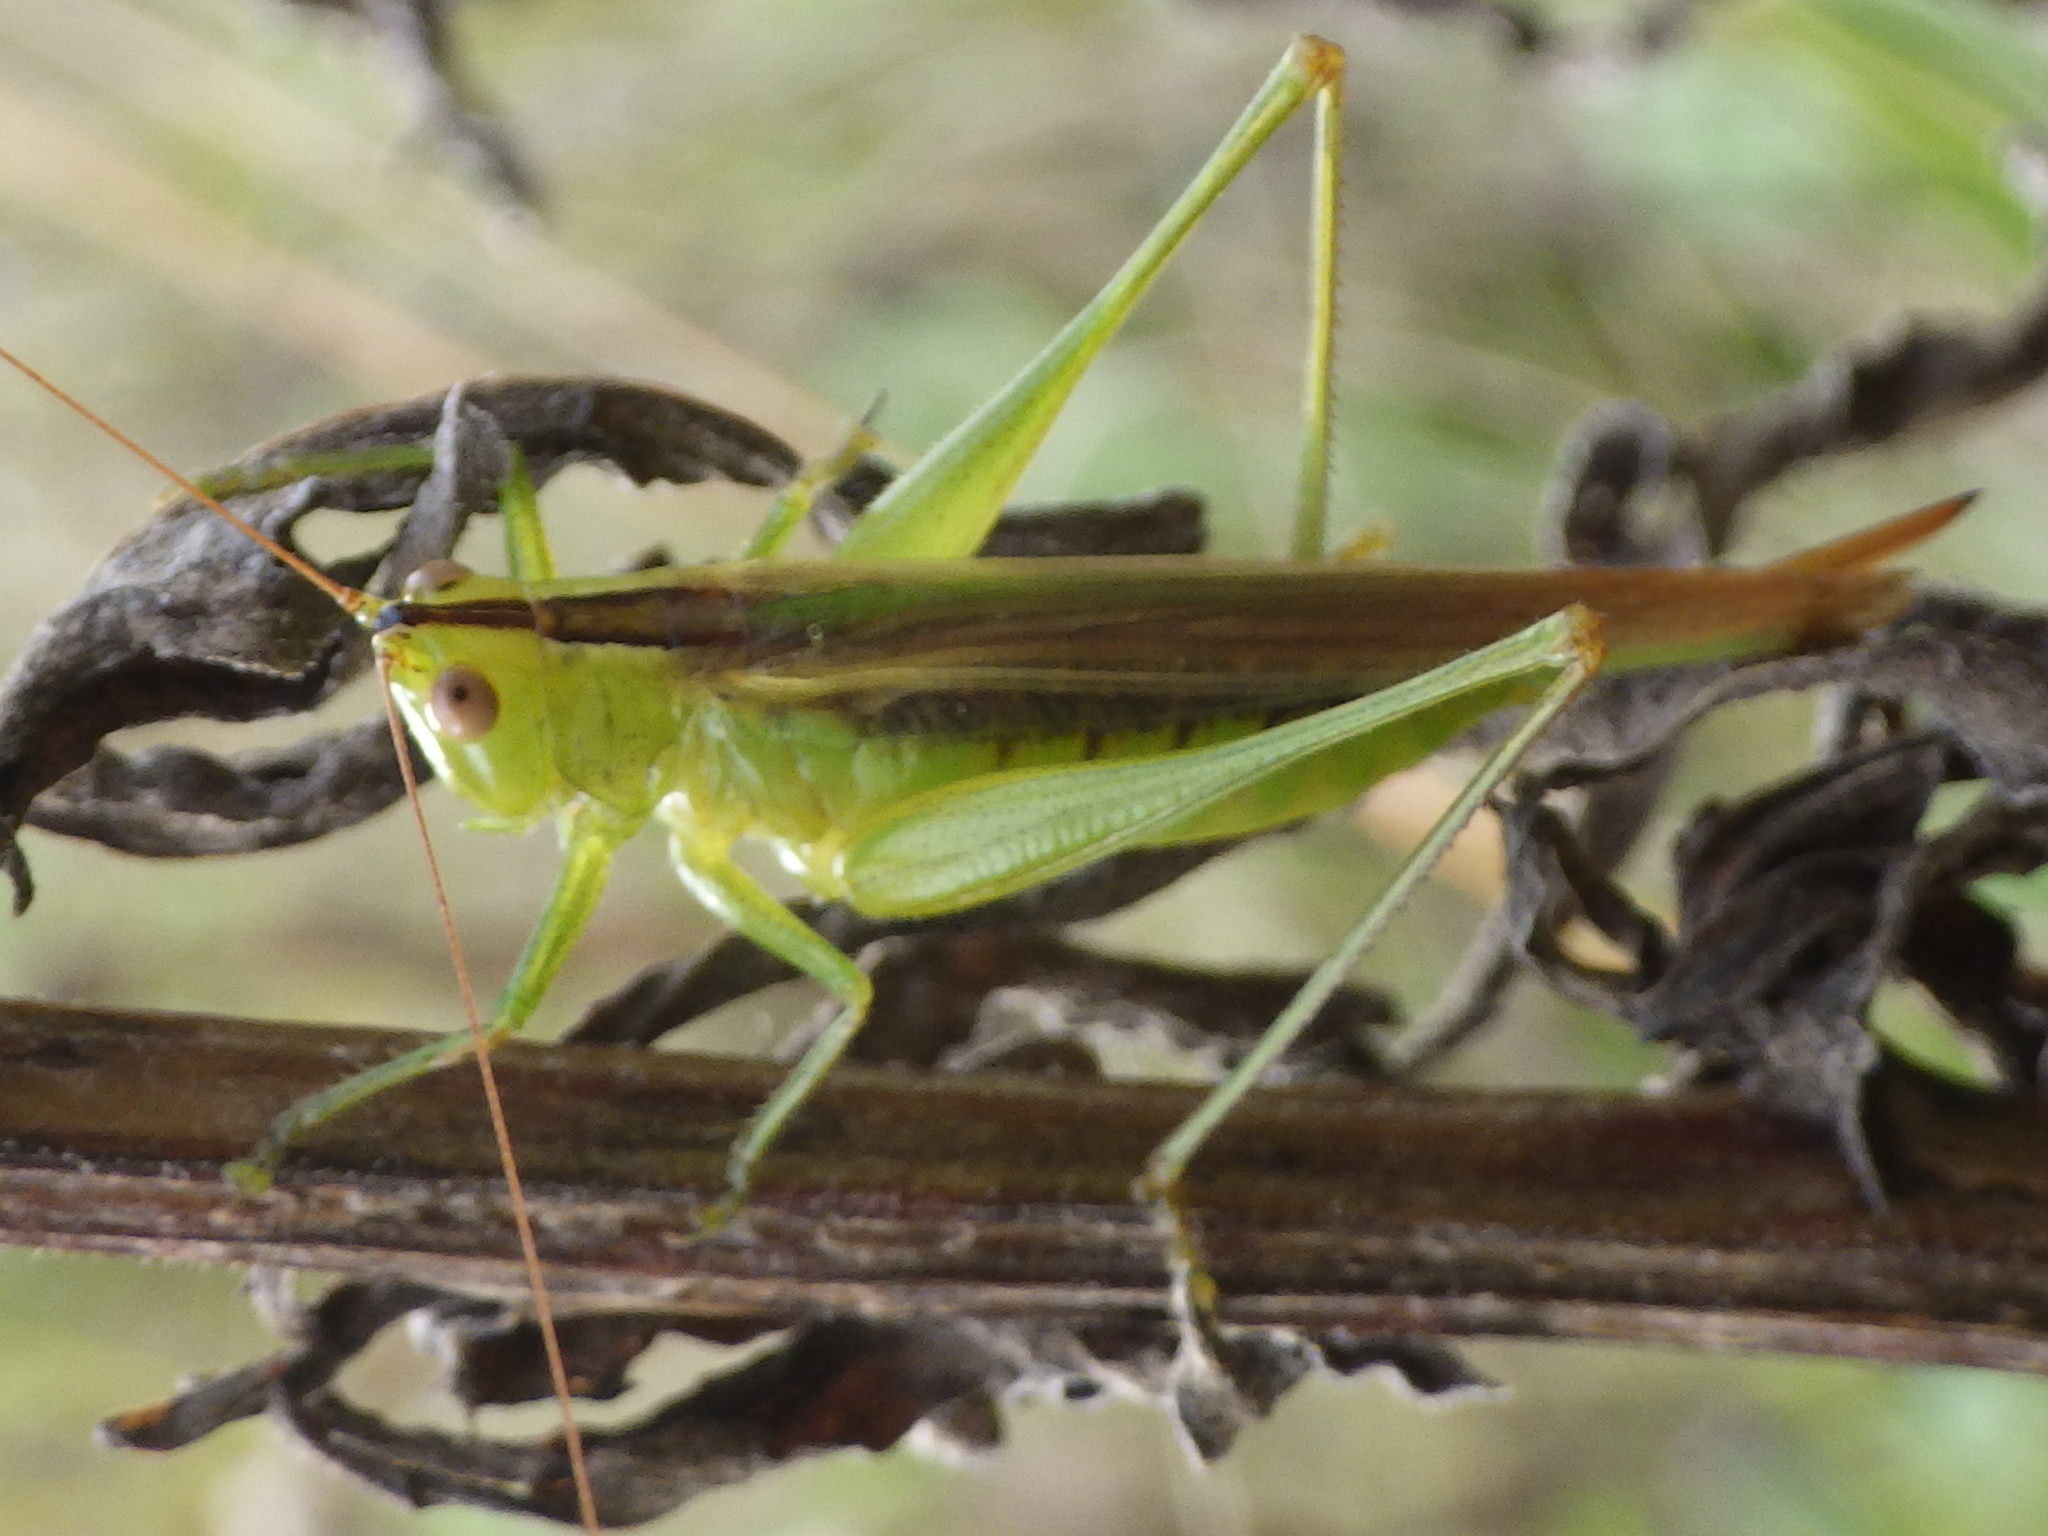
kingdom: Animalia
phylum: Arthropoda
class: Insecta
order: Orthoptera
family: Tettigoniidae
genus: Conocephalus
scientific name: Conocephalus fasciatus
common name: Slender meadow katydid
